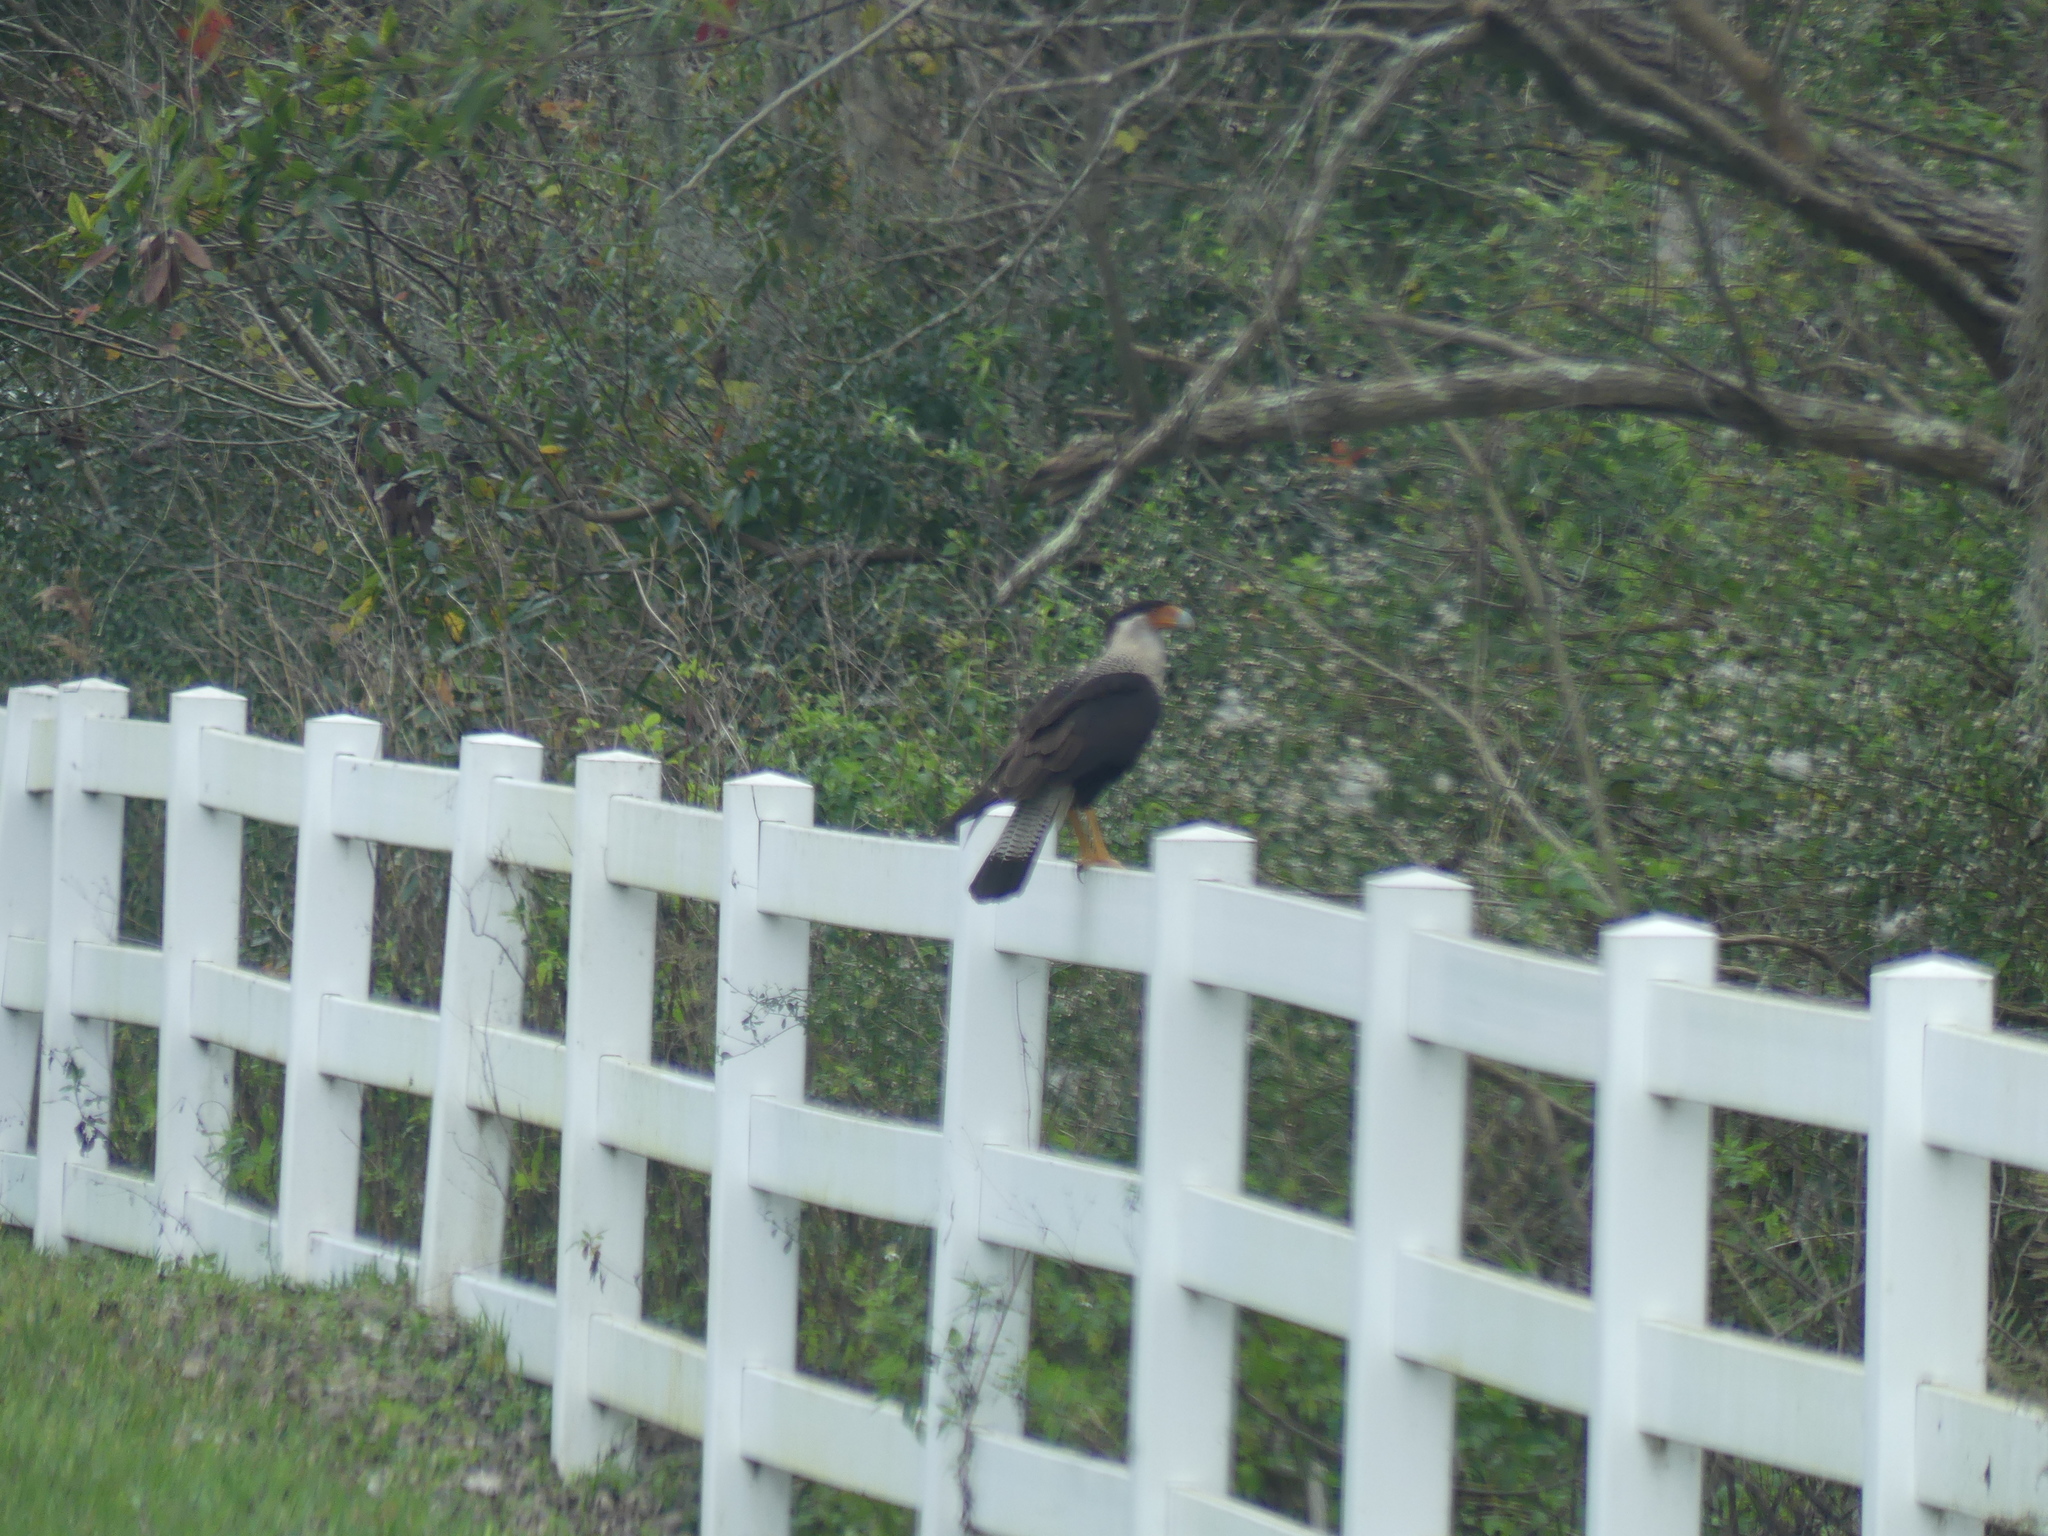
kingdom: Animalia
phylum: Chordata
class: Aves
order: Falconiformes
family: Falconidae
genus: Caracara
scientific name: Caracara plancus
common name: Southern caracara
